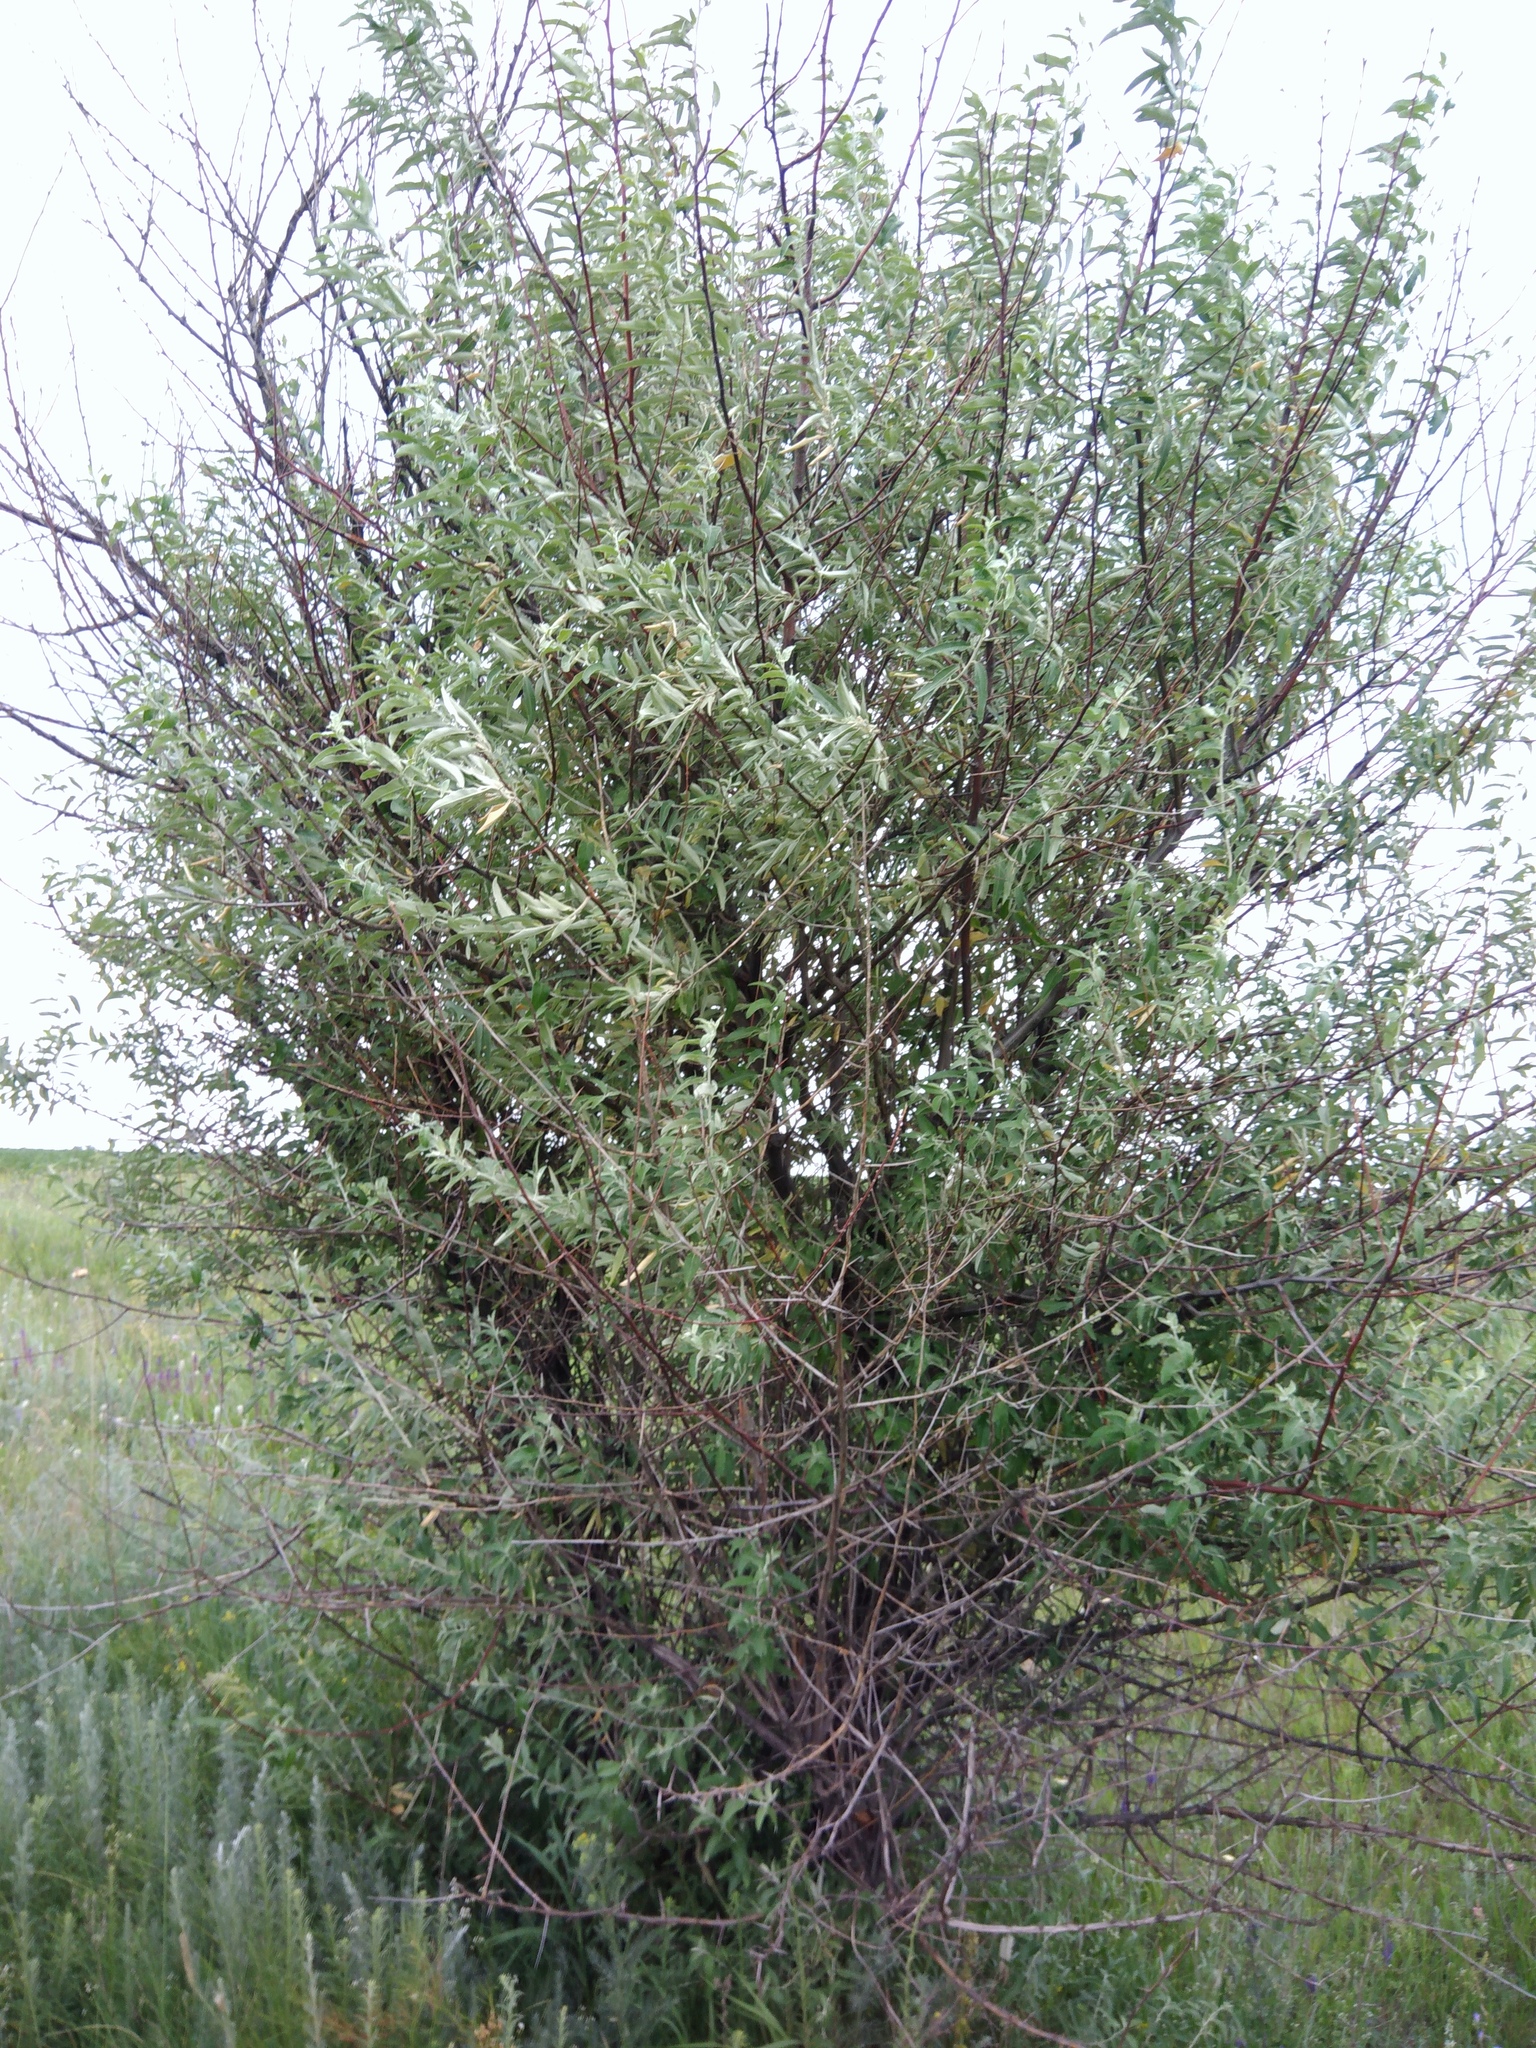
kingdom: Plantae
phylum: Tracheophyta
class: Magnoliopsida
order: Rosales
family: Elaeagnaceae
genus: Elaeagnus
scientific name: Elaeagnus angustifolia
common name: Russian olive
